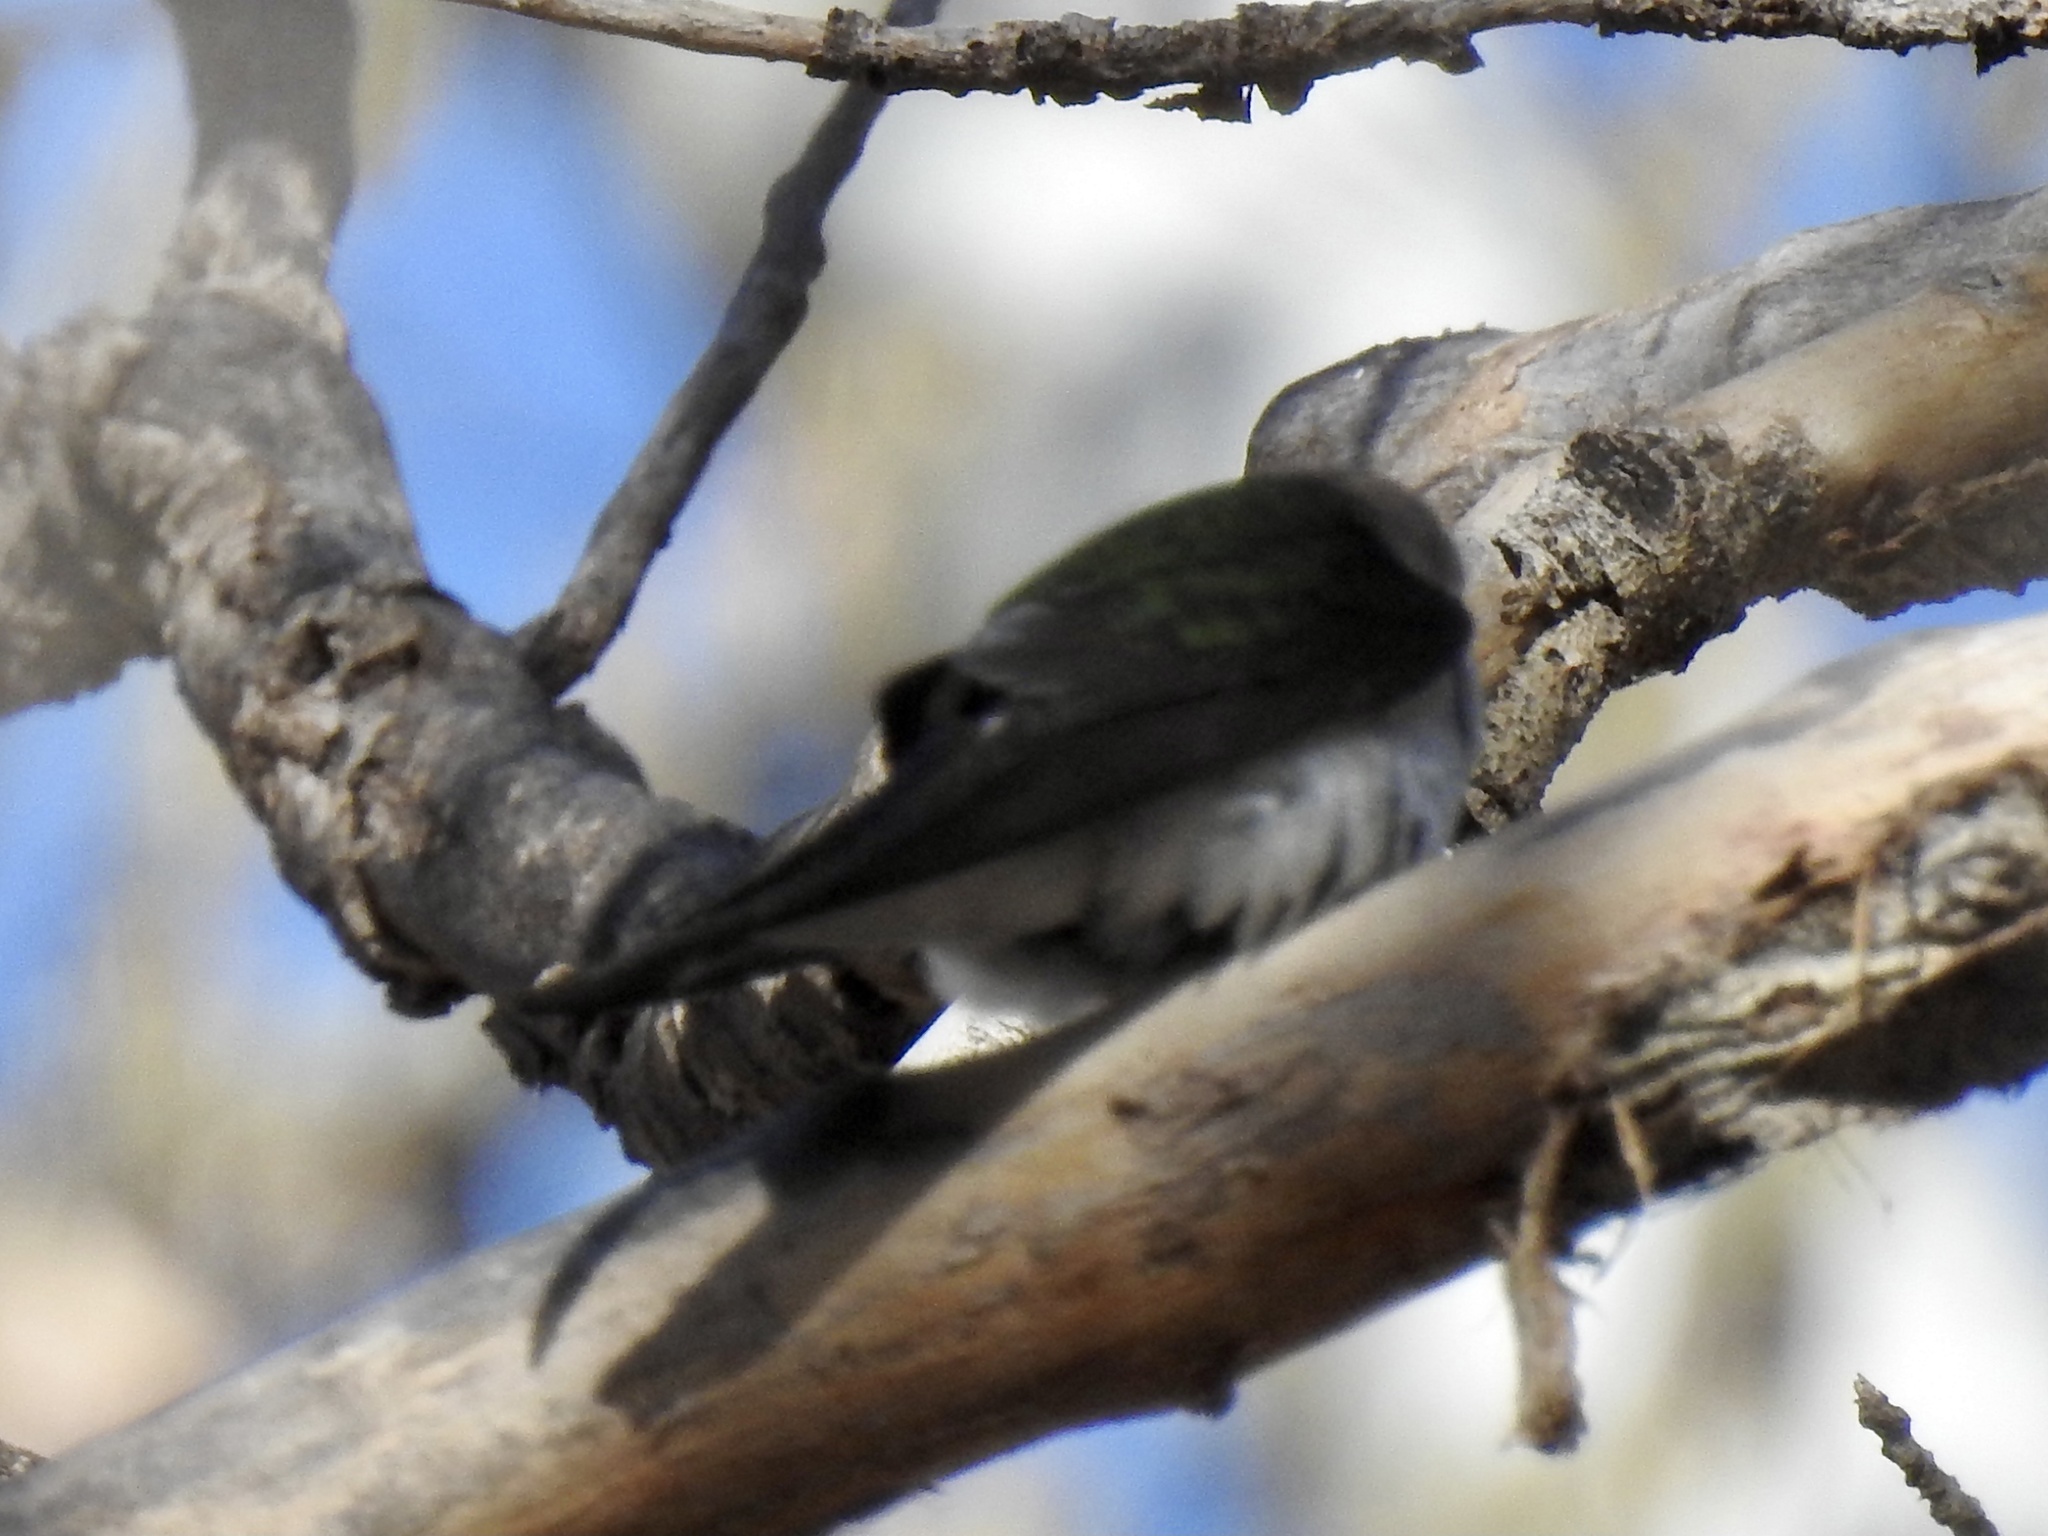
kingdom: Animalia
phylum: Chordata
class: Aves
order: Passeriformes
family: Hirundinidae
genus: Tachycineta
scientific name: Tachycineta bicolor
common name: Tree swallow
